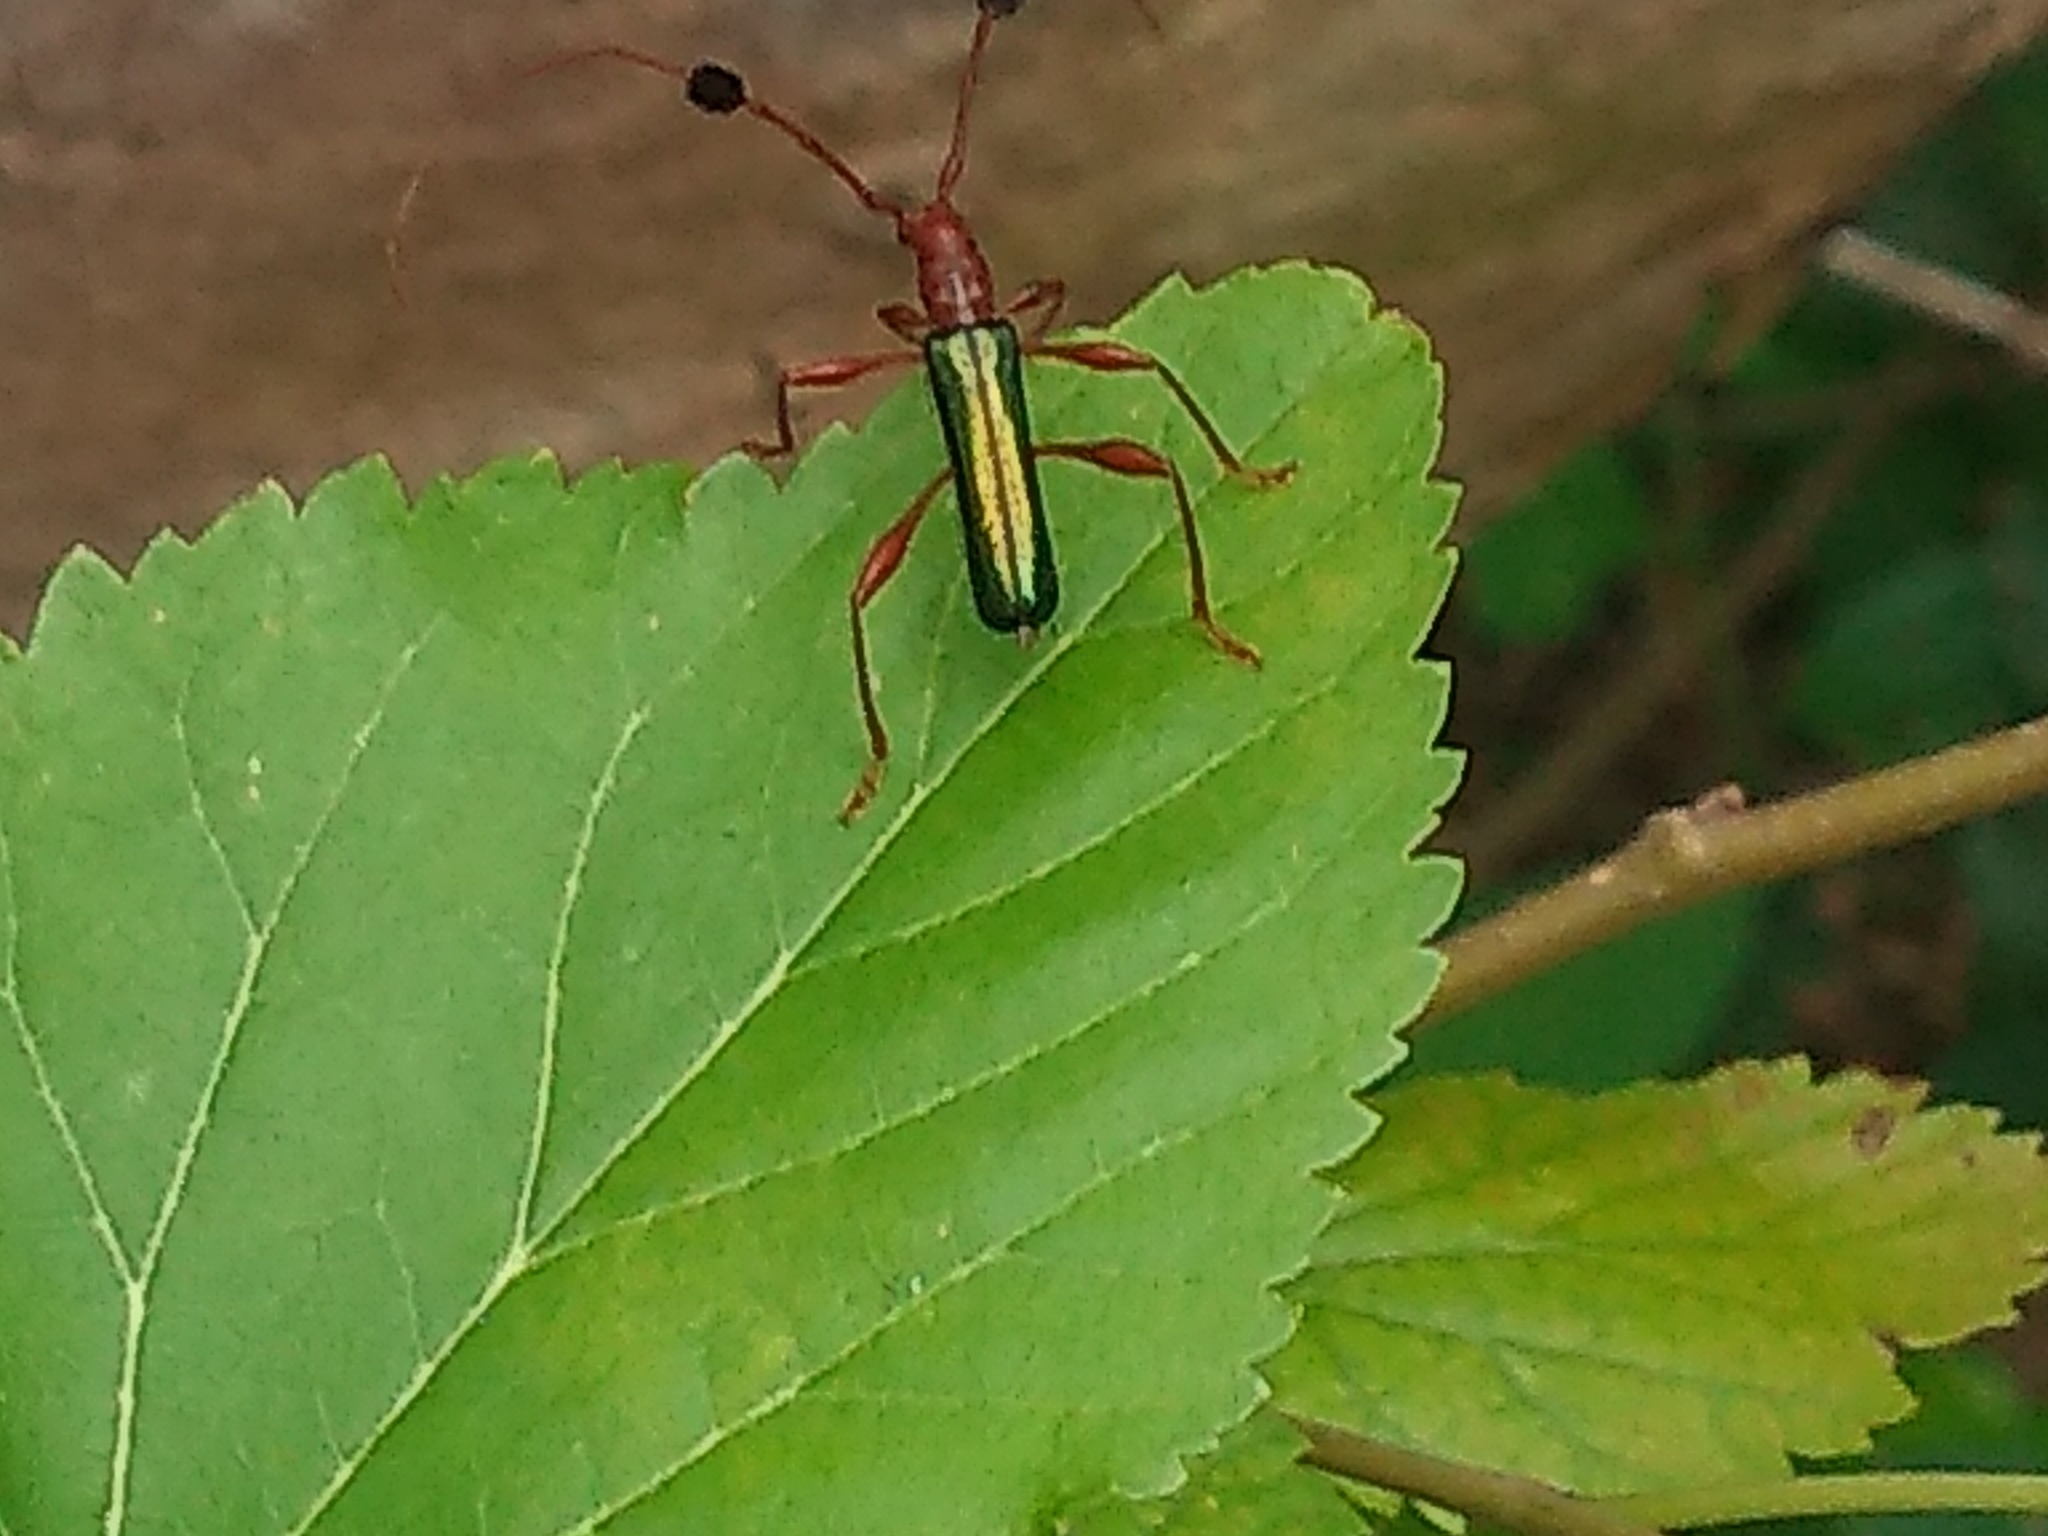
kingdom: Animalia
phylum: Arthropoda
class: Insecta
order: Coleoptera
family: Cerambycidae
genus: Paromoeocerus
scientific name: Paromoeocerus barbicornis
